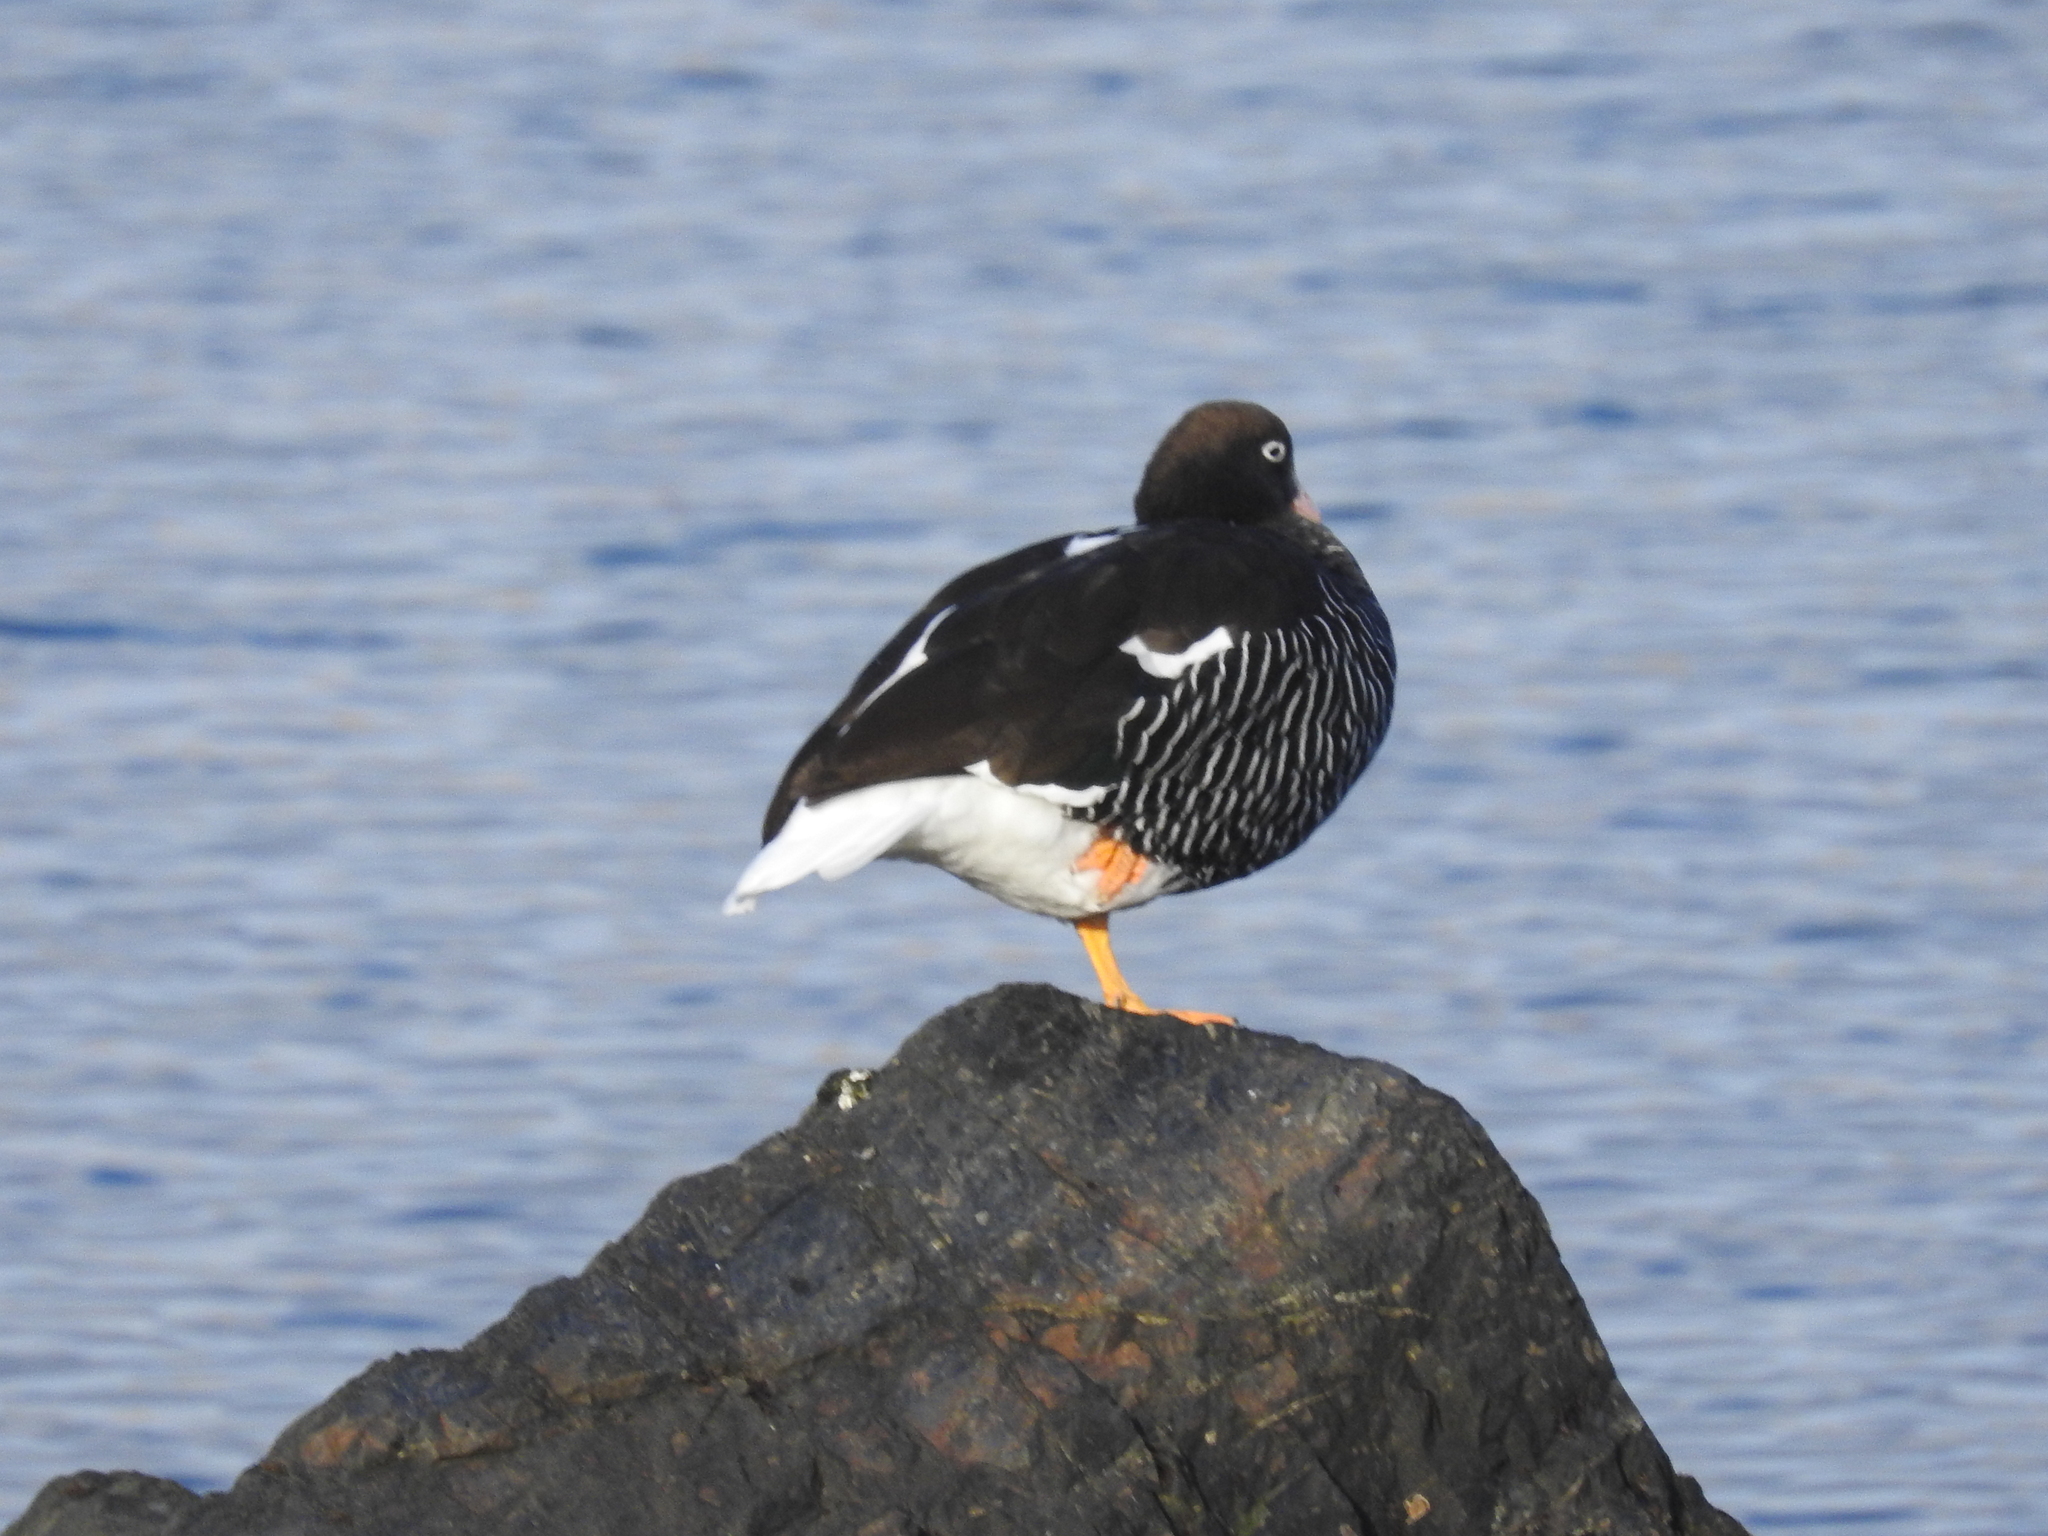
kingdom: Animalia
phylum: Chordata
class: Aves
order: Anseriformes
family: Anatidae
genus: Chloephaga
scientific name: Chloephaga hybrida
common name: Kelp goose
